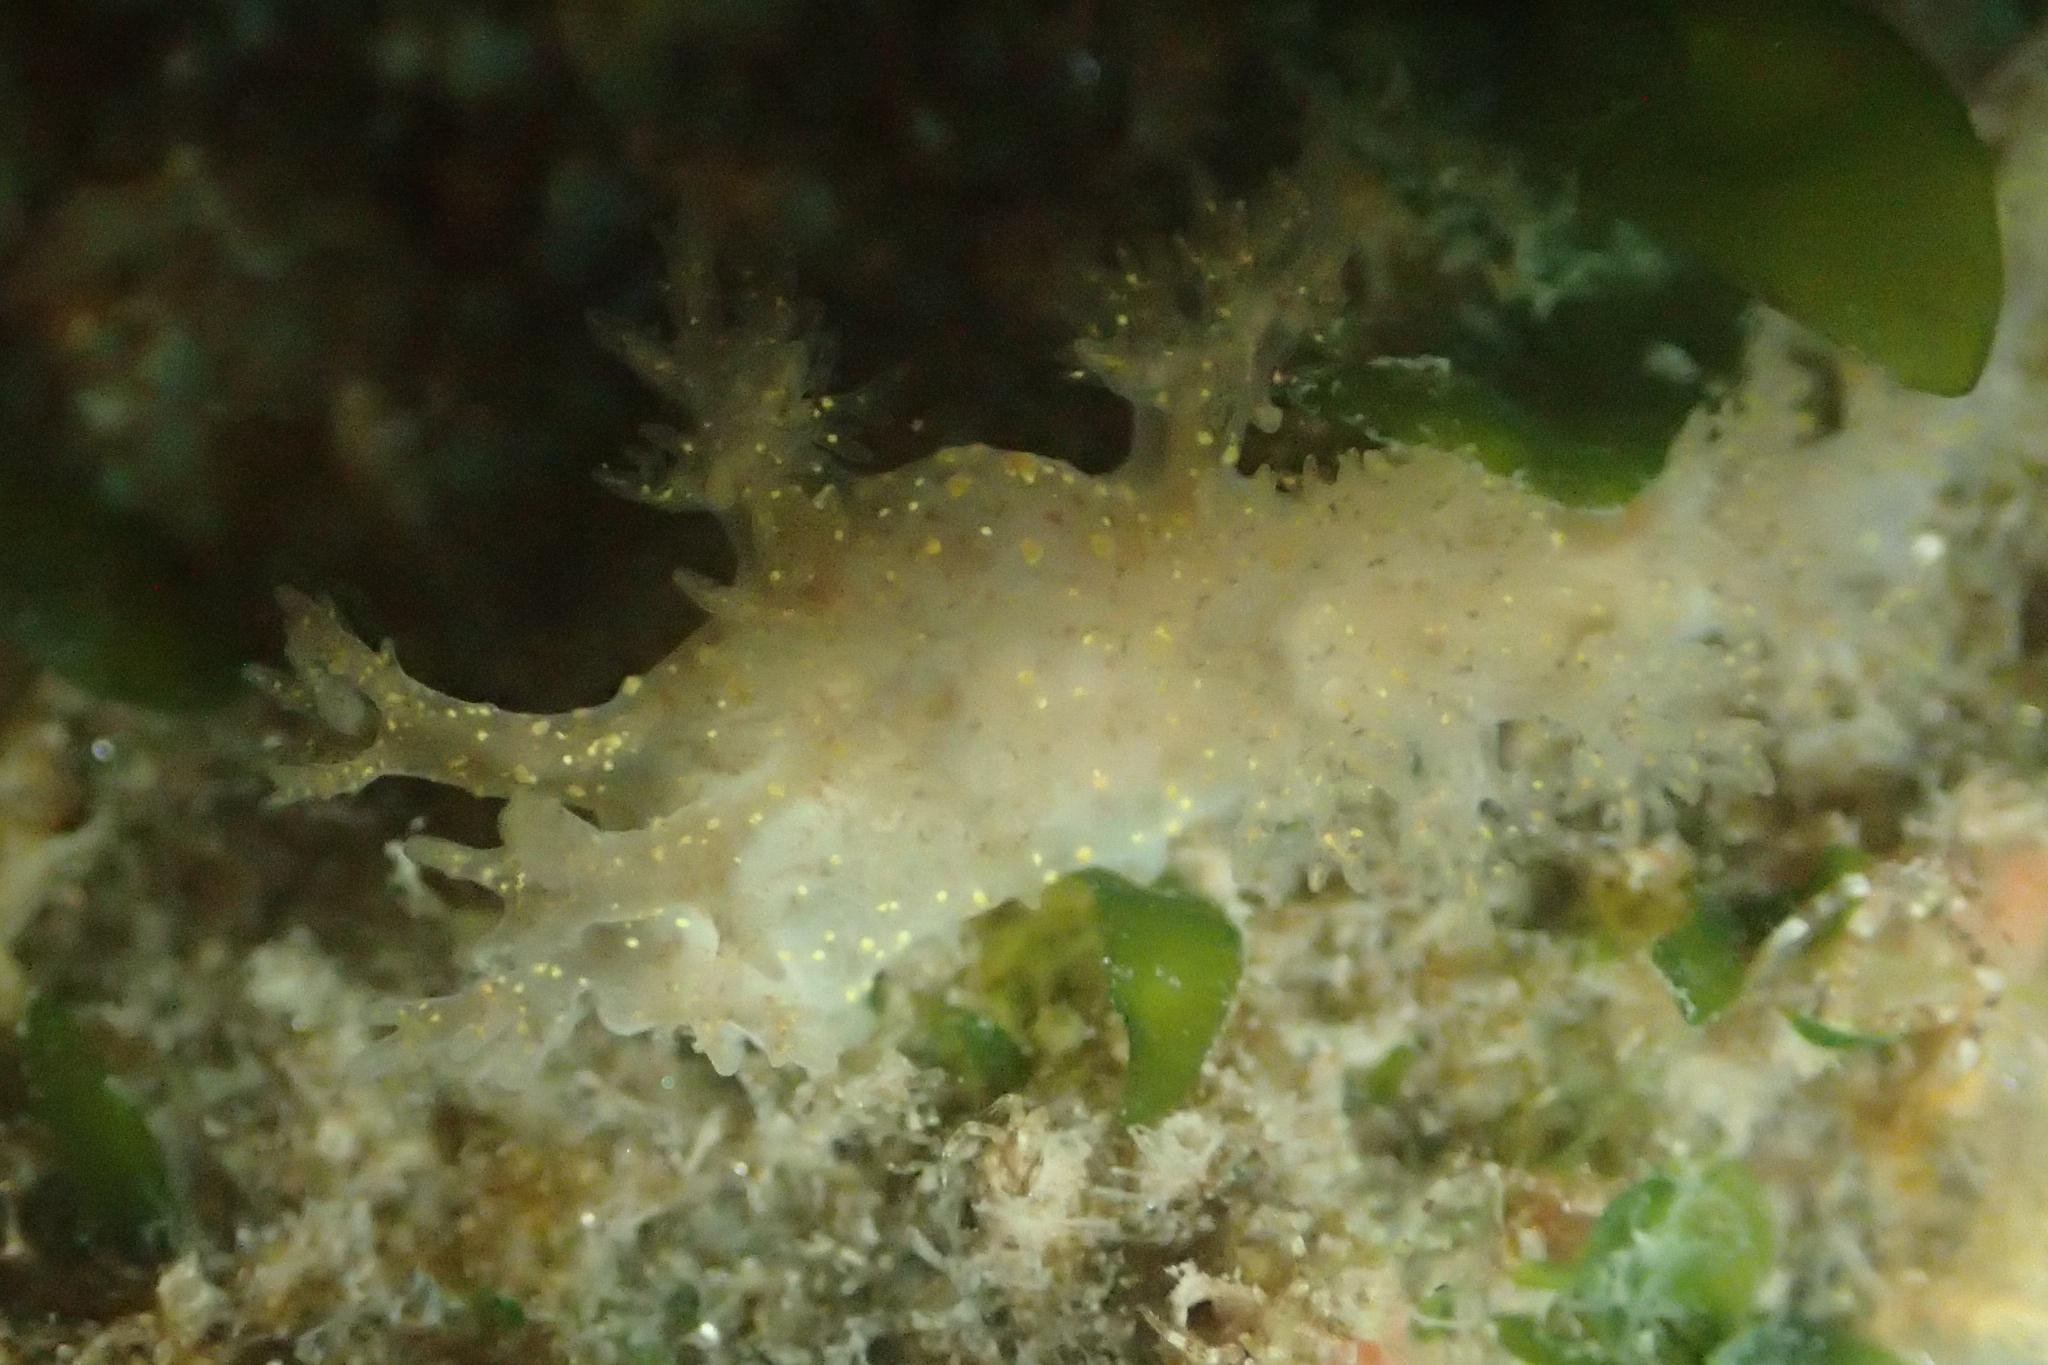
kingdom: Animalia
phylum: Mollusca
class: Gastropoda
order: Nudibranchia
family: Dendronotidae
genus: Dendronotus
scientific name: Dendronotus venustus
